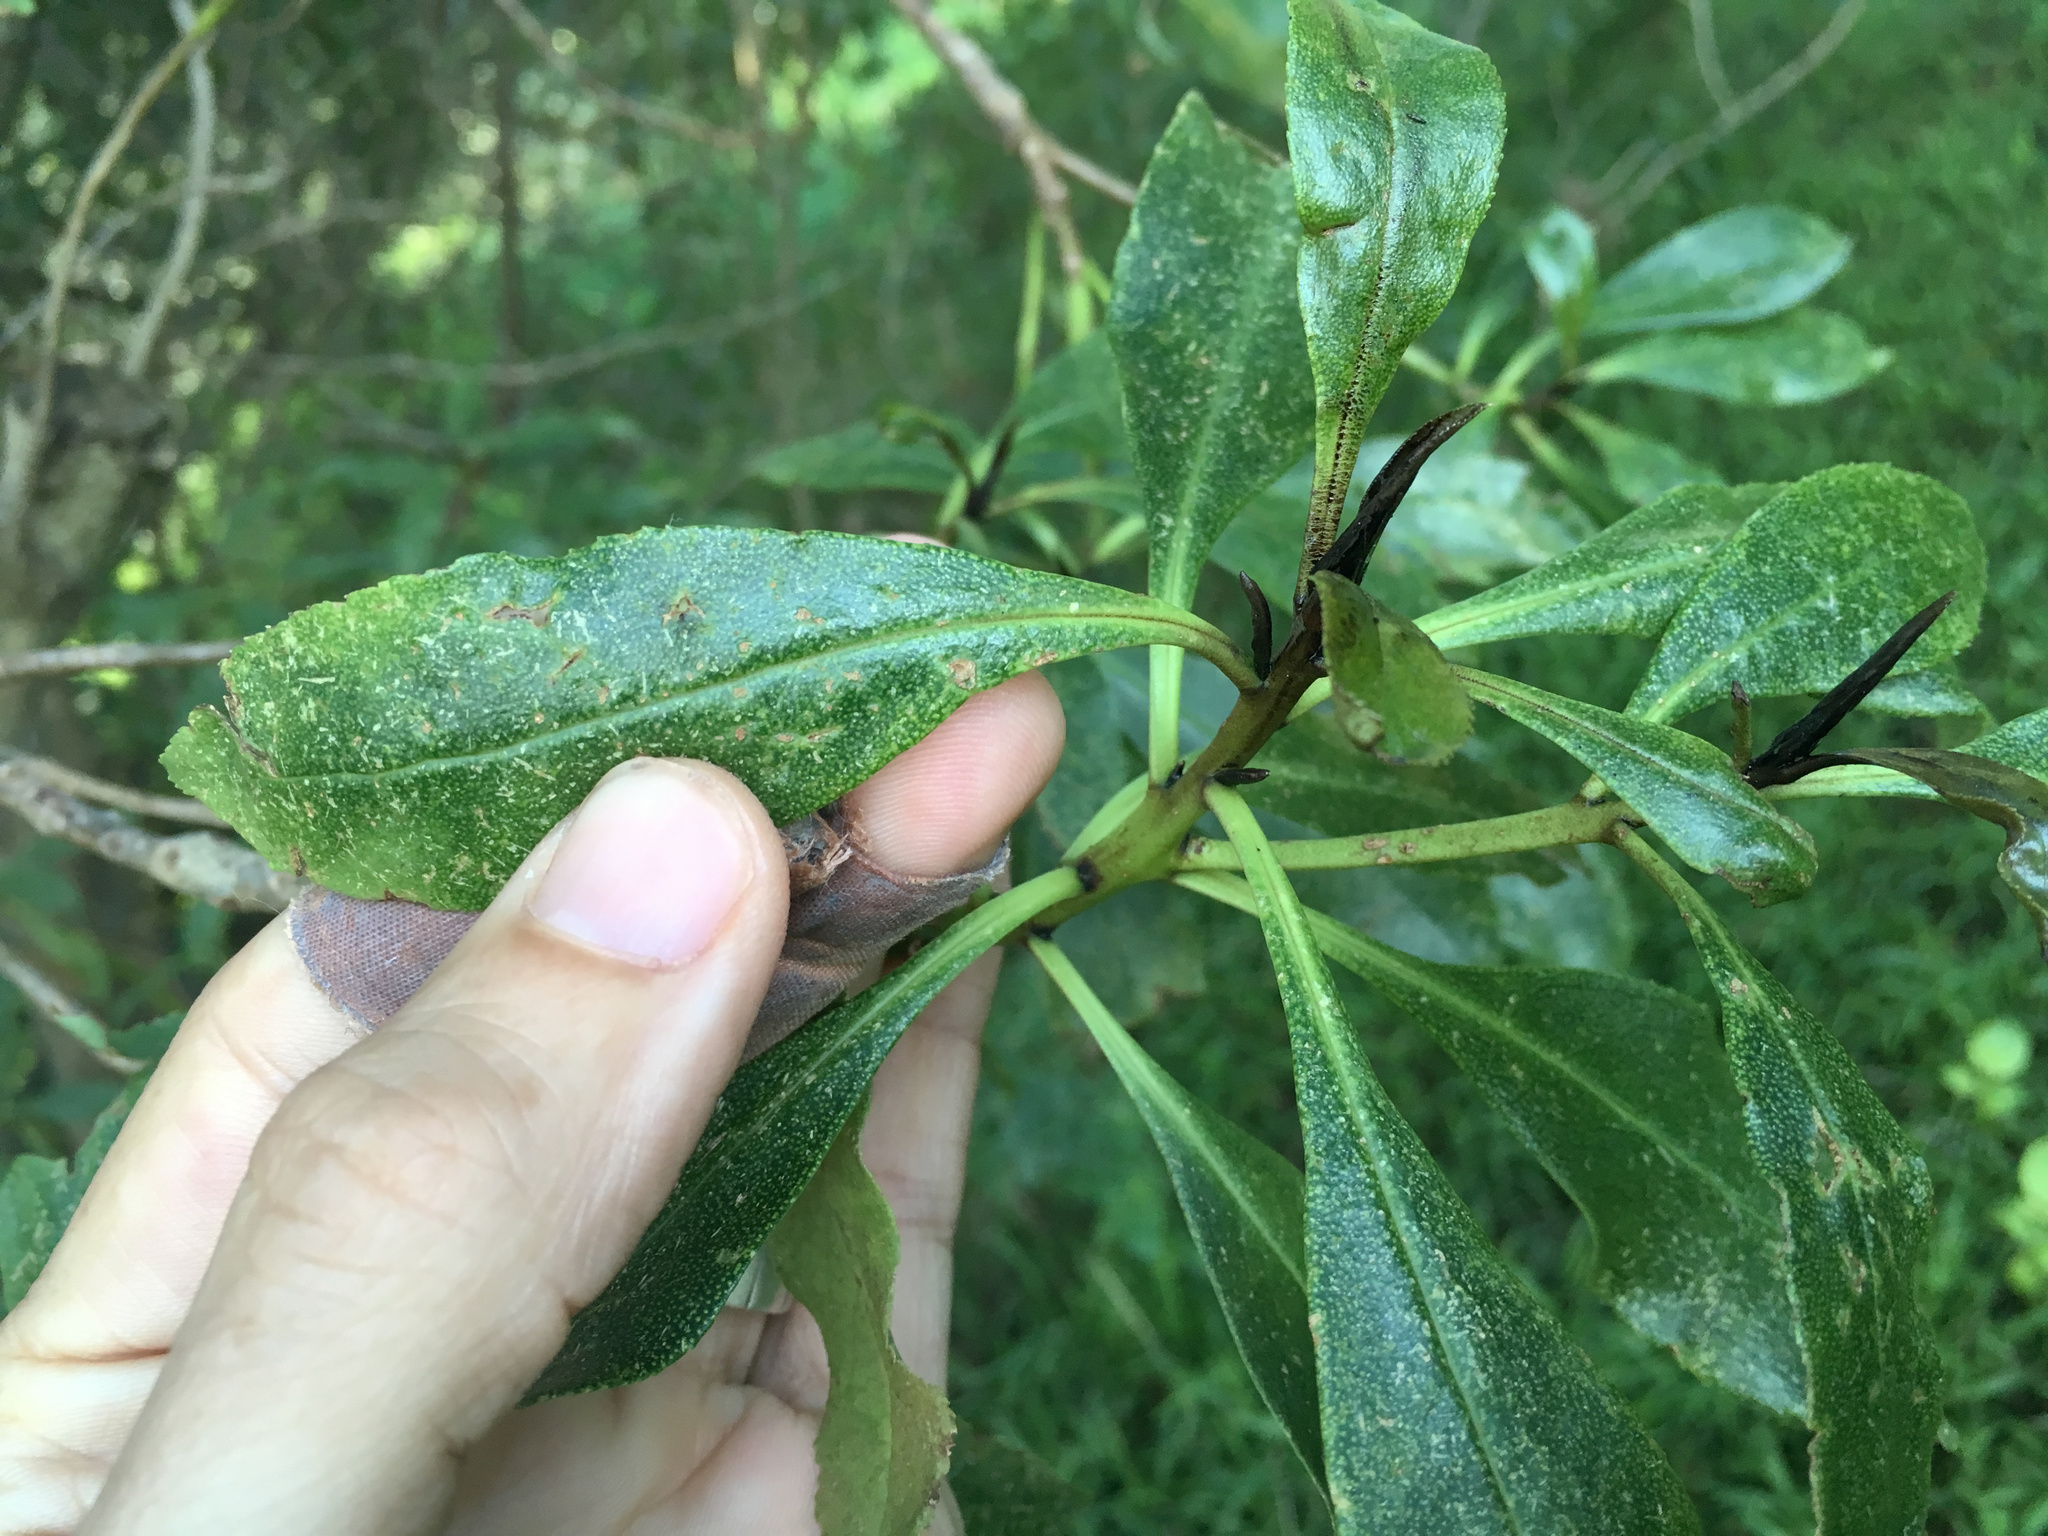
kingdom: Plantae
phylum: Tracheophyta
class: Magnoliopsida
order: Lamiales
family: Scrophulariaceae
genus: Myoporum
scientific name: Myoporum laetum
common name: Ngaio tree
